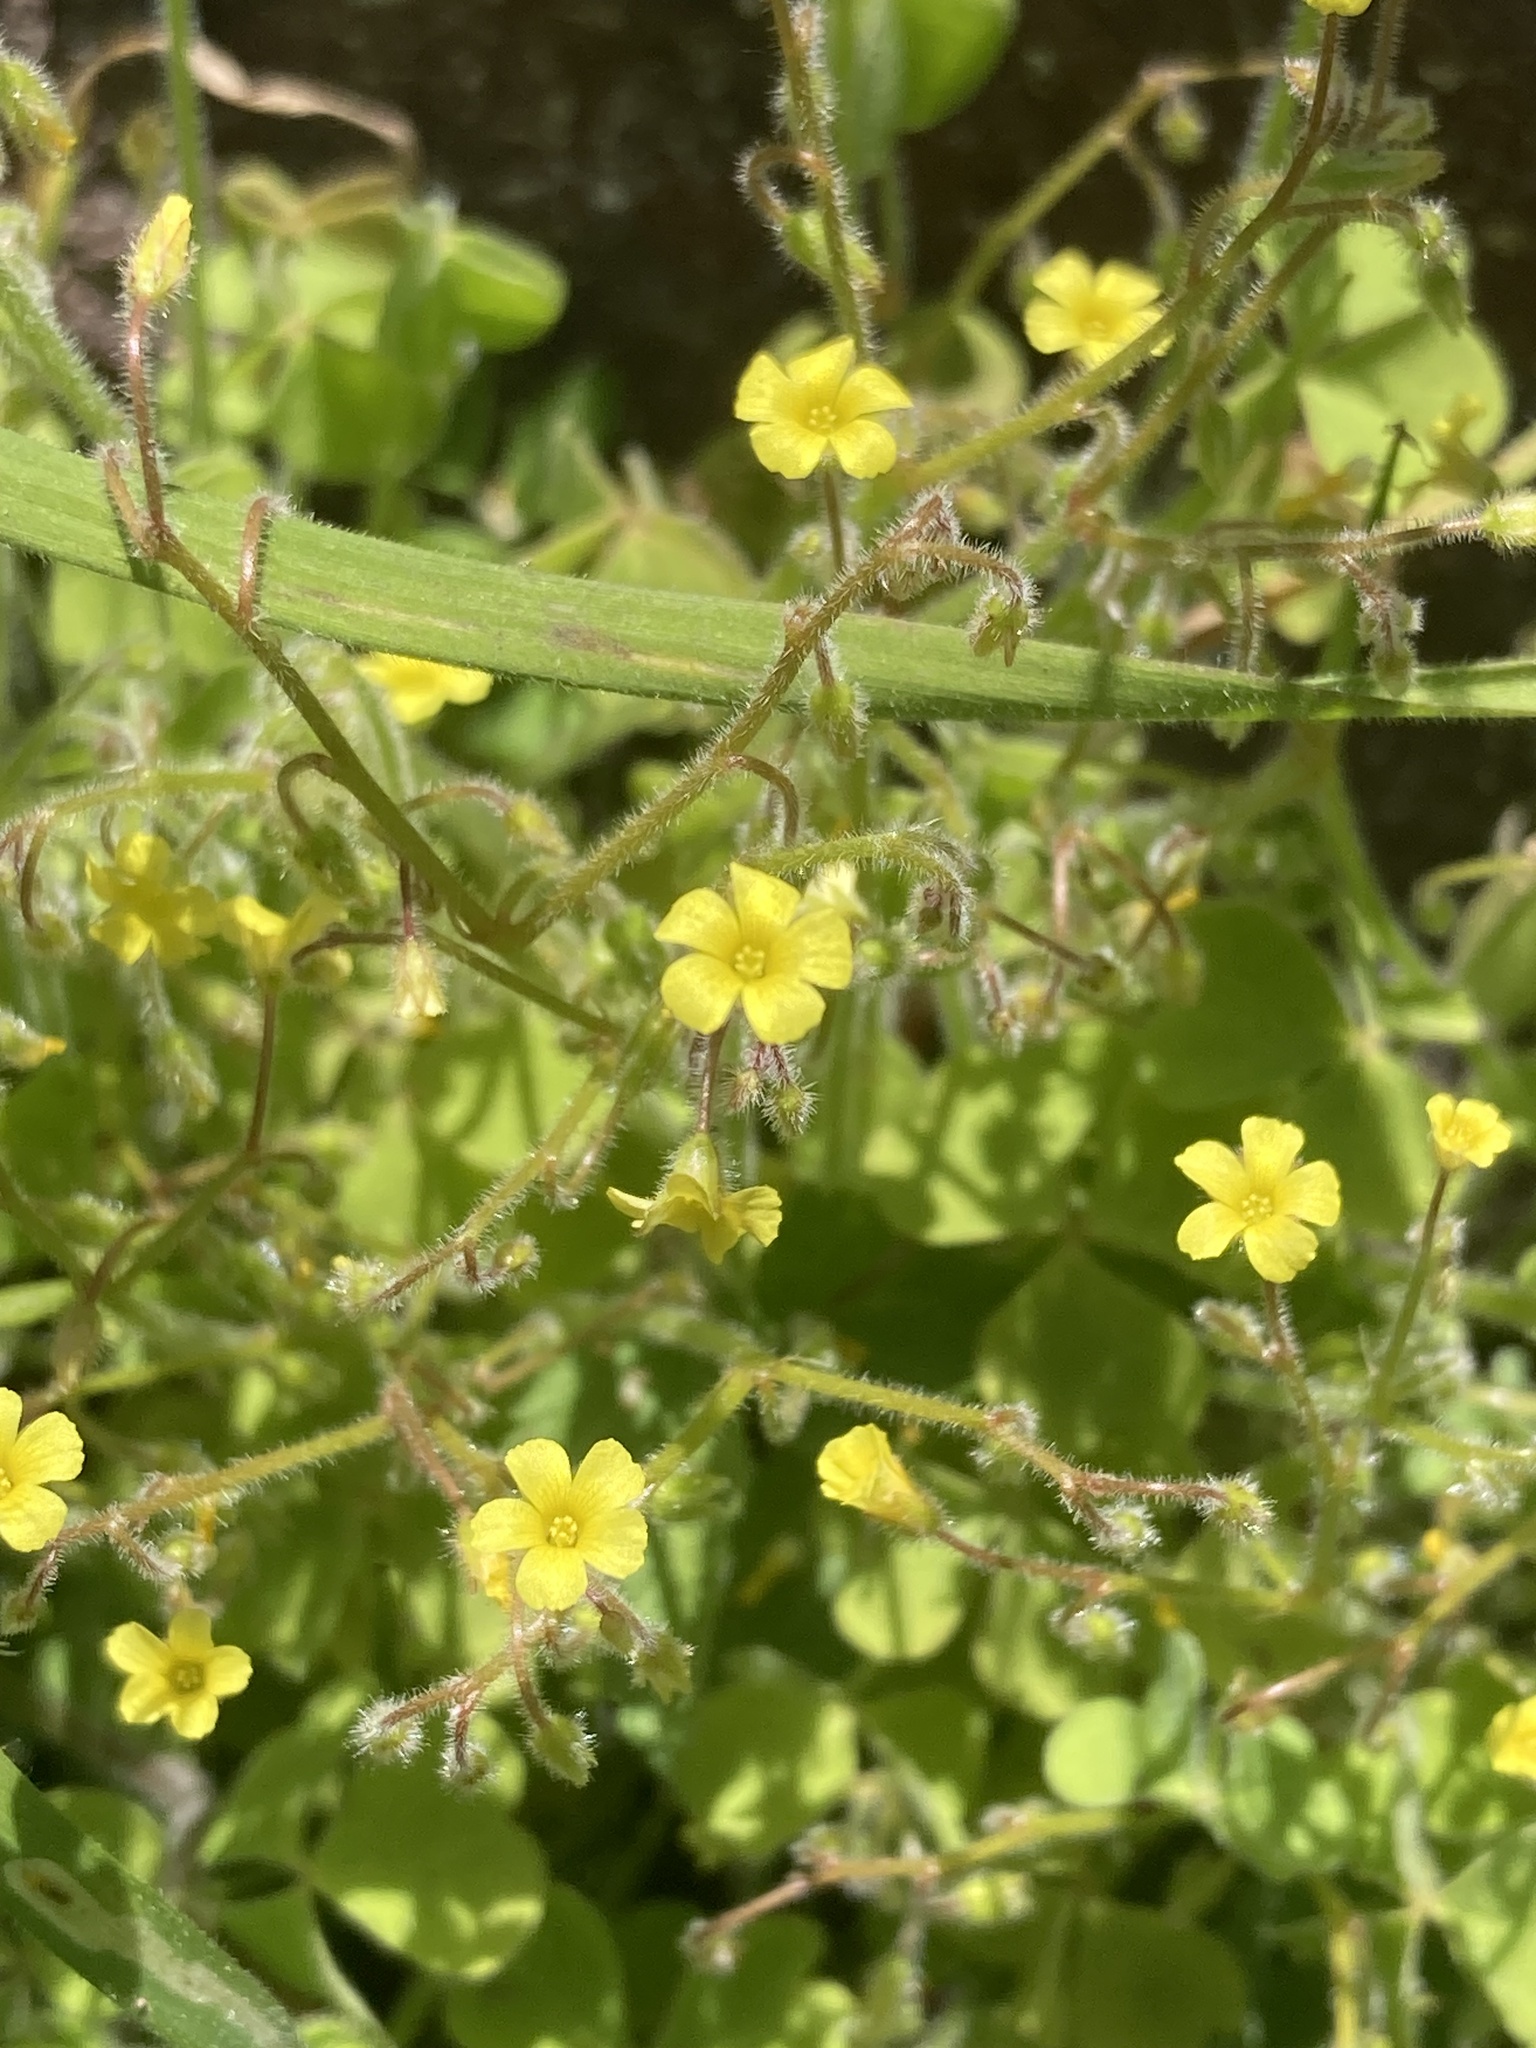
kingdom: Plantae
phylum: Tracheophyta
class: Magnoliopsida
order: Oxalidales
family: Oxalidaceae
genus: Oxalis
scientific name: Oxalis laxa
